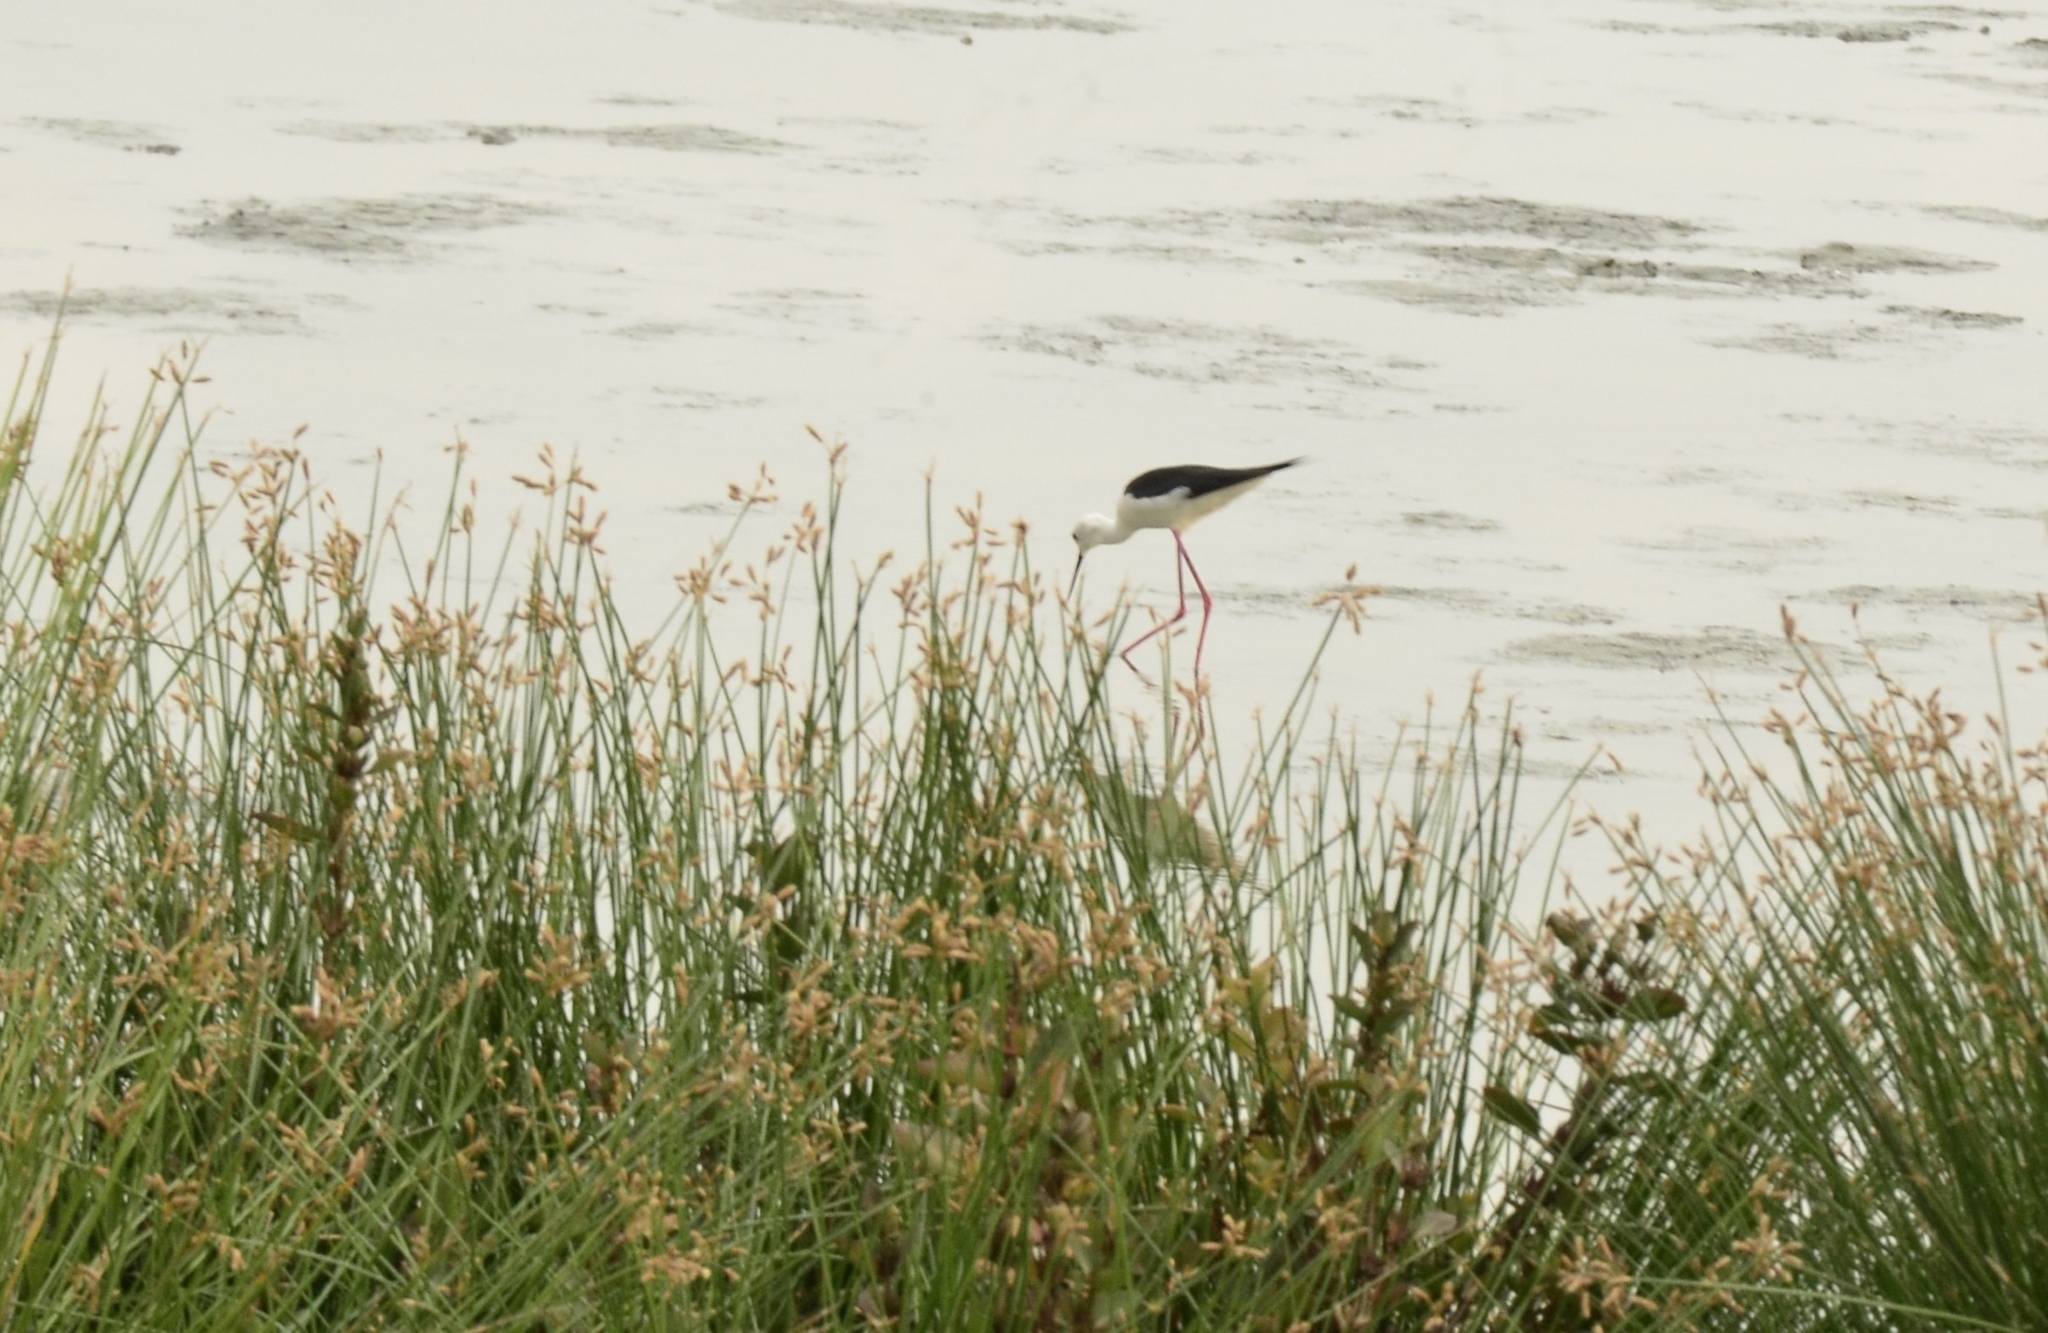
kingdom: Animalia
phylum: Chordata
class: Aves
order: Charadriiformes
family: Recurvirostridae
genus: Himantopus
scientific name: Himantopus himantopus
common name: Black-winged stilt
